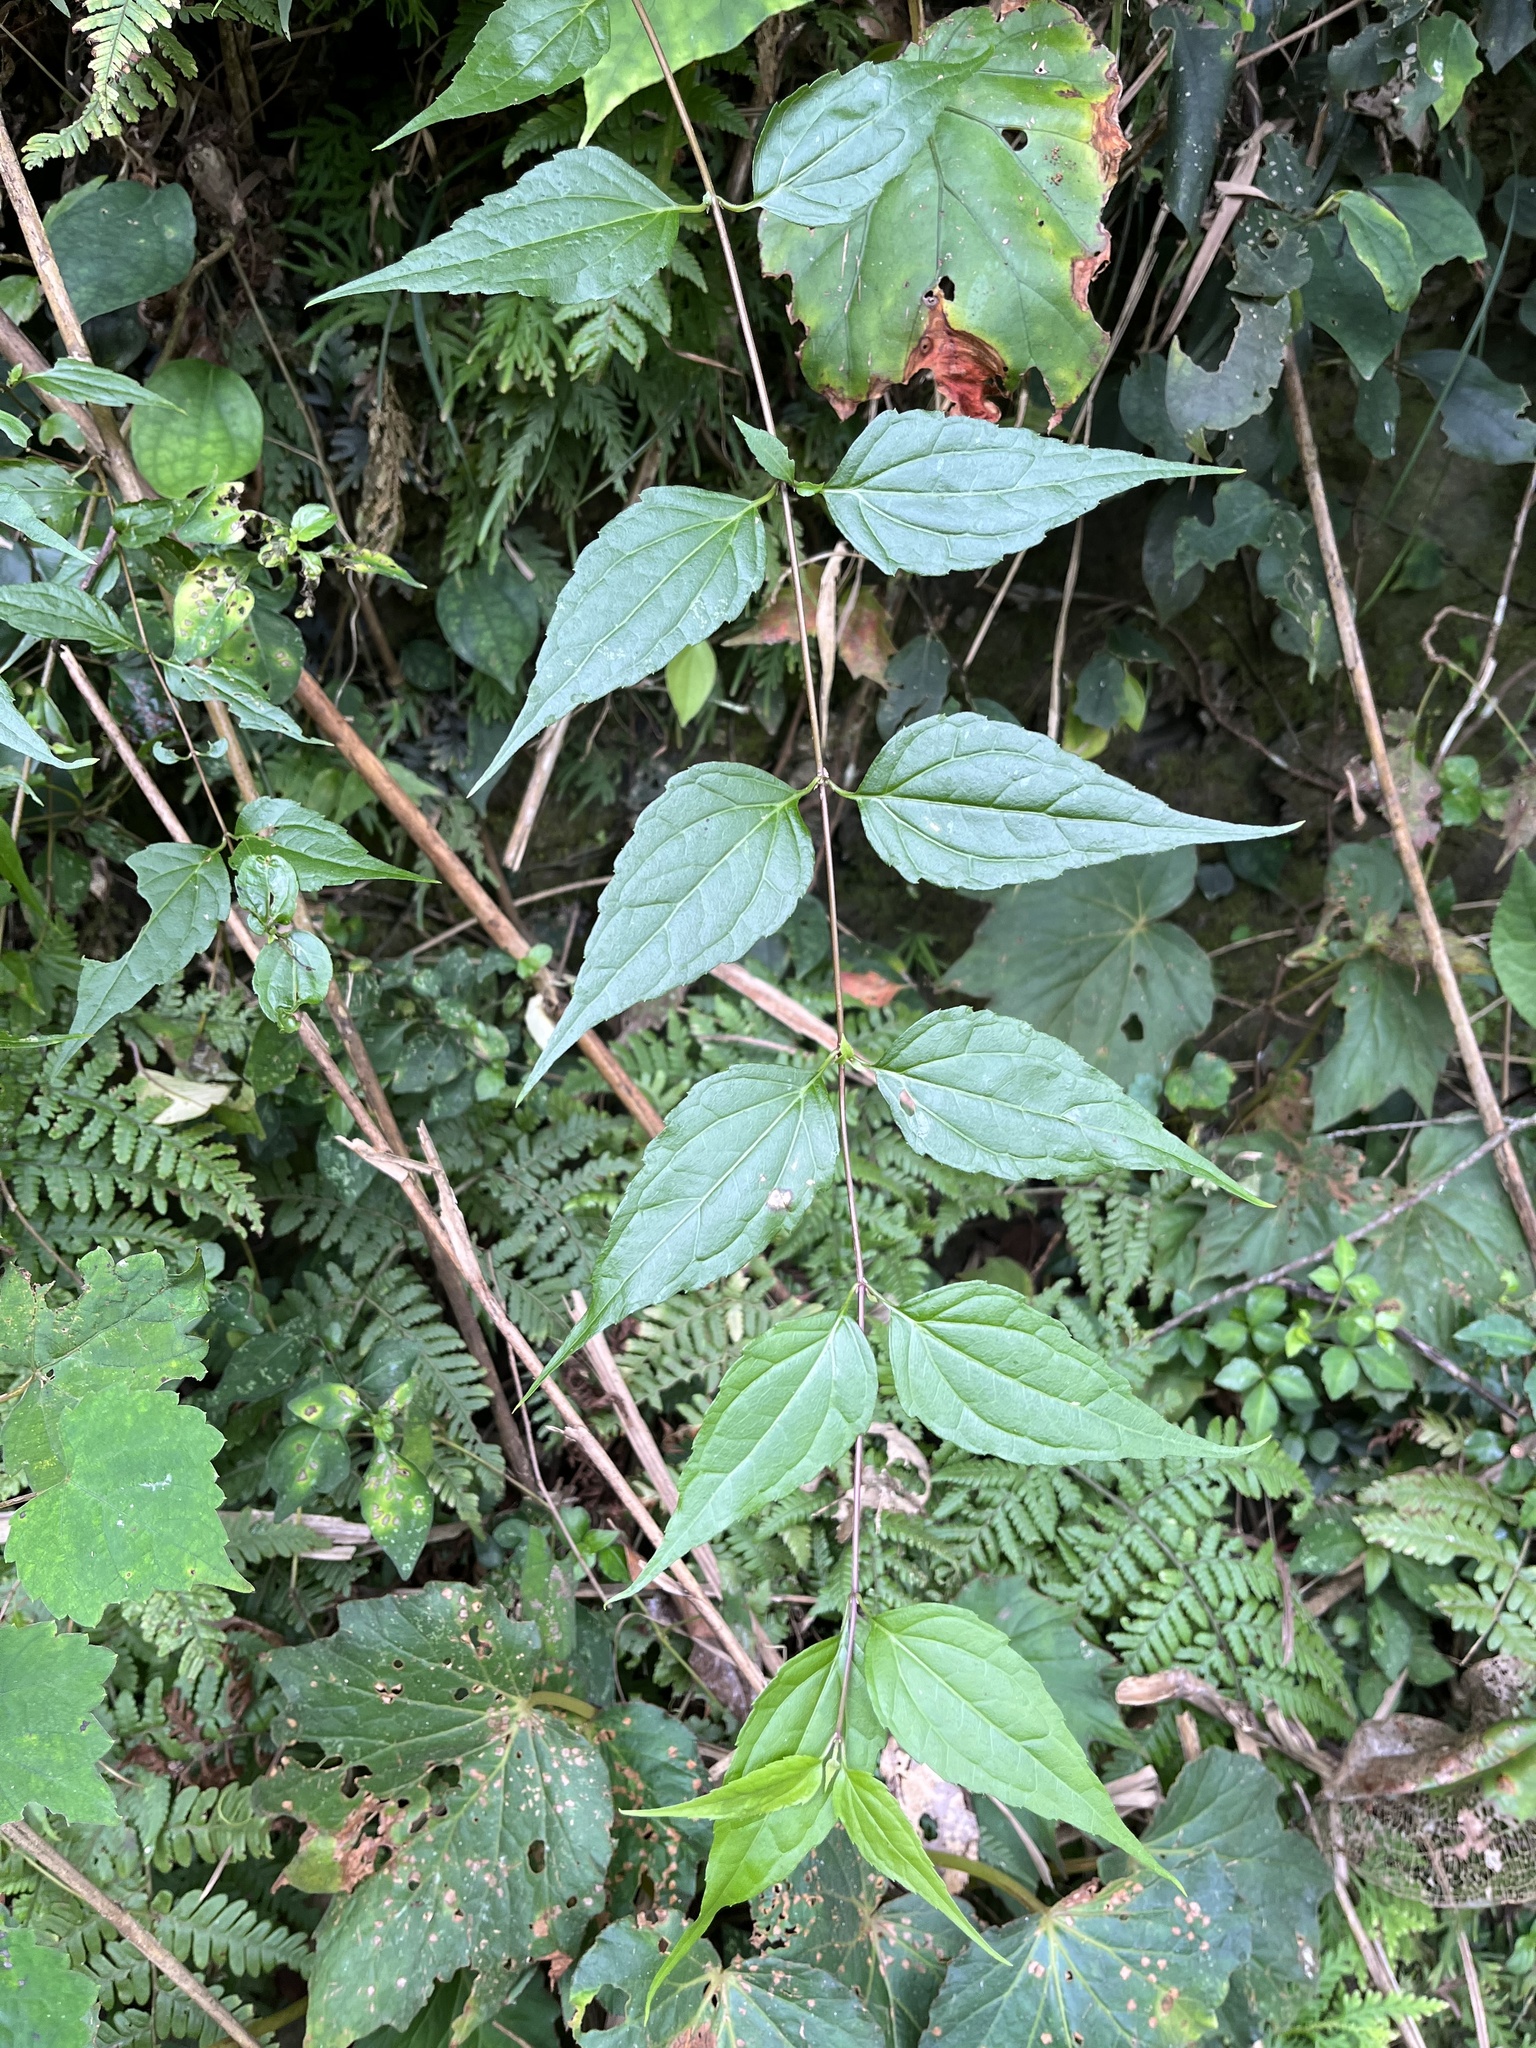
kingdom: Plantae
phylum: Tracheophyta
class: Magnoliopsida
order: Asterales
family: Asteraceae
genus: Eupatorium
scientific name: Eupatorium tashiroi
